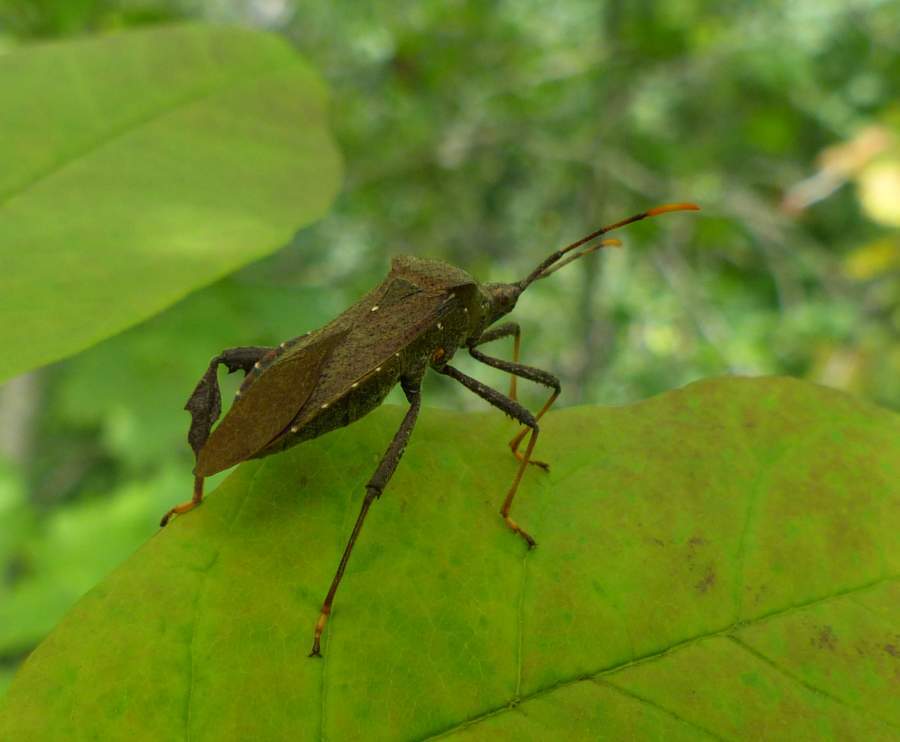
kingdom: Animalia
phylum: Arthropoda
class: Insecta
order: Hemiptera
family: Coreidae
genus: Acanthocephala
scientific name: Acanthocephala terminalis
